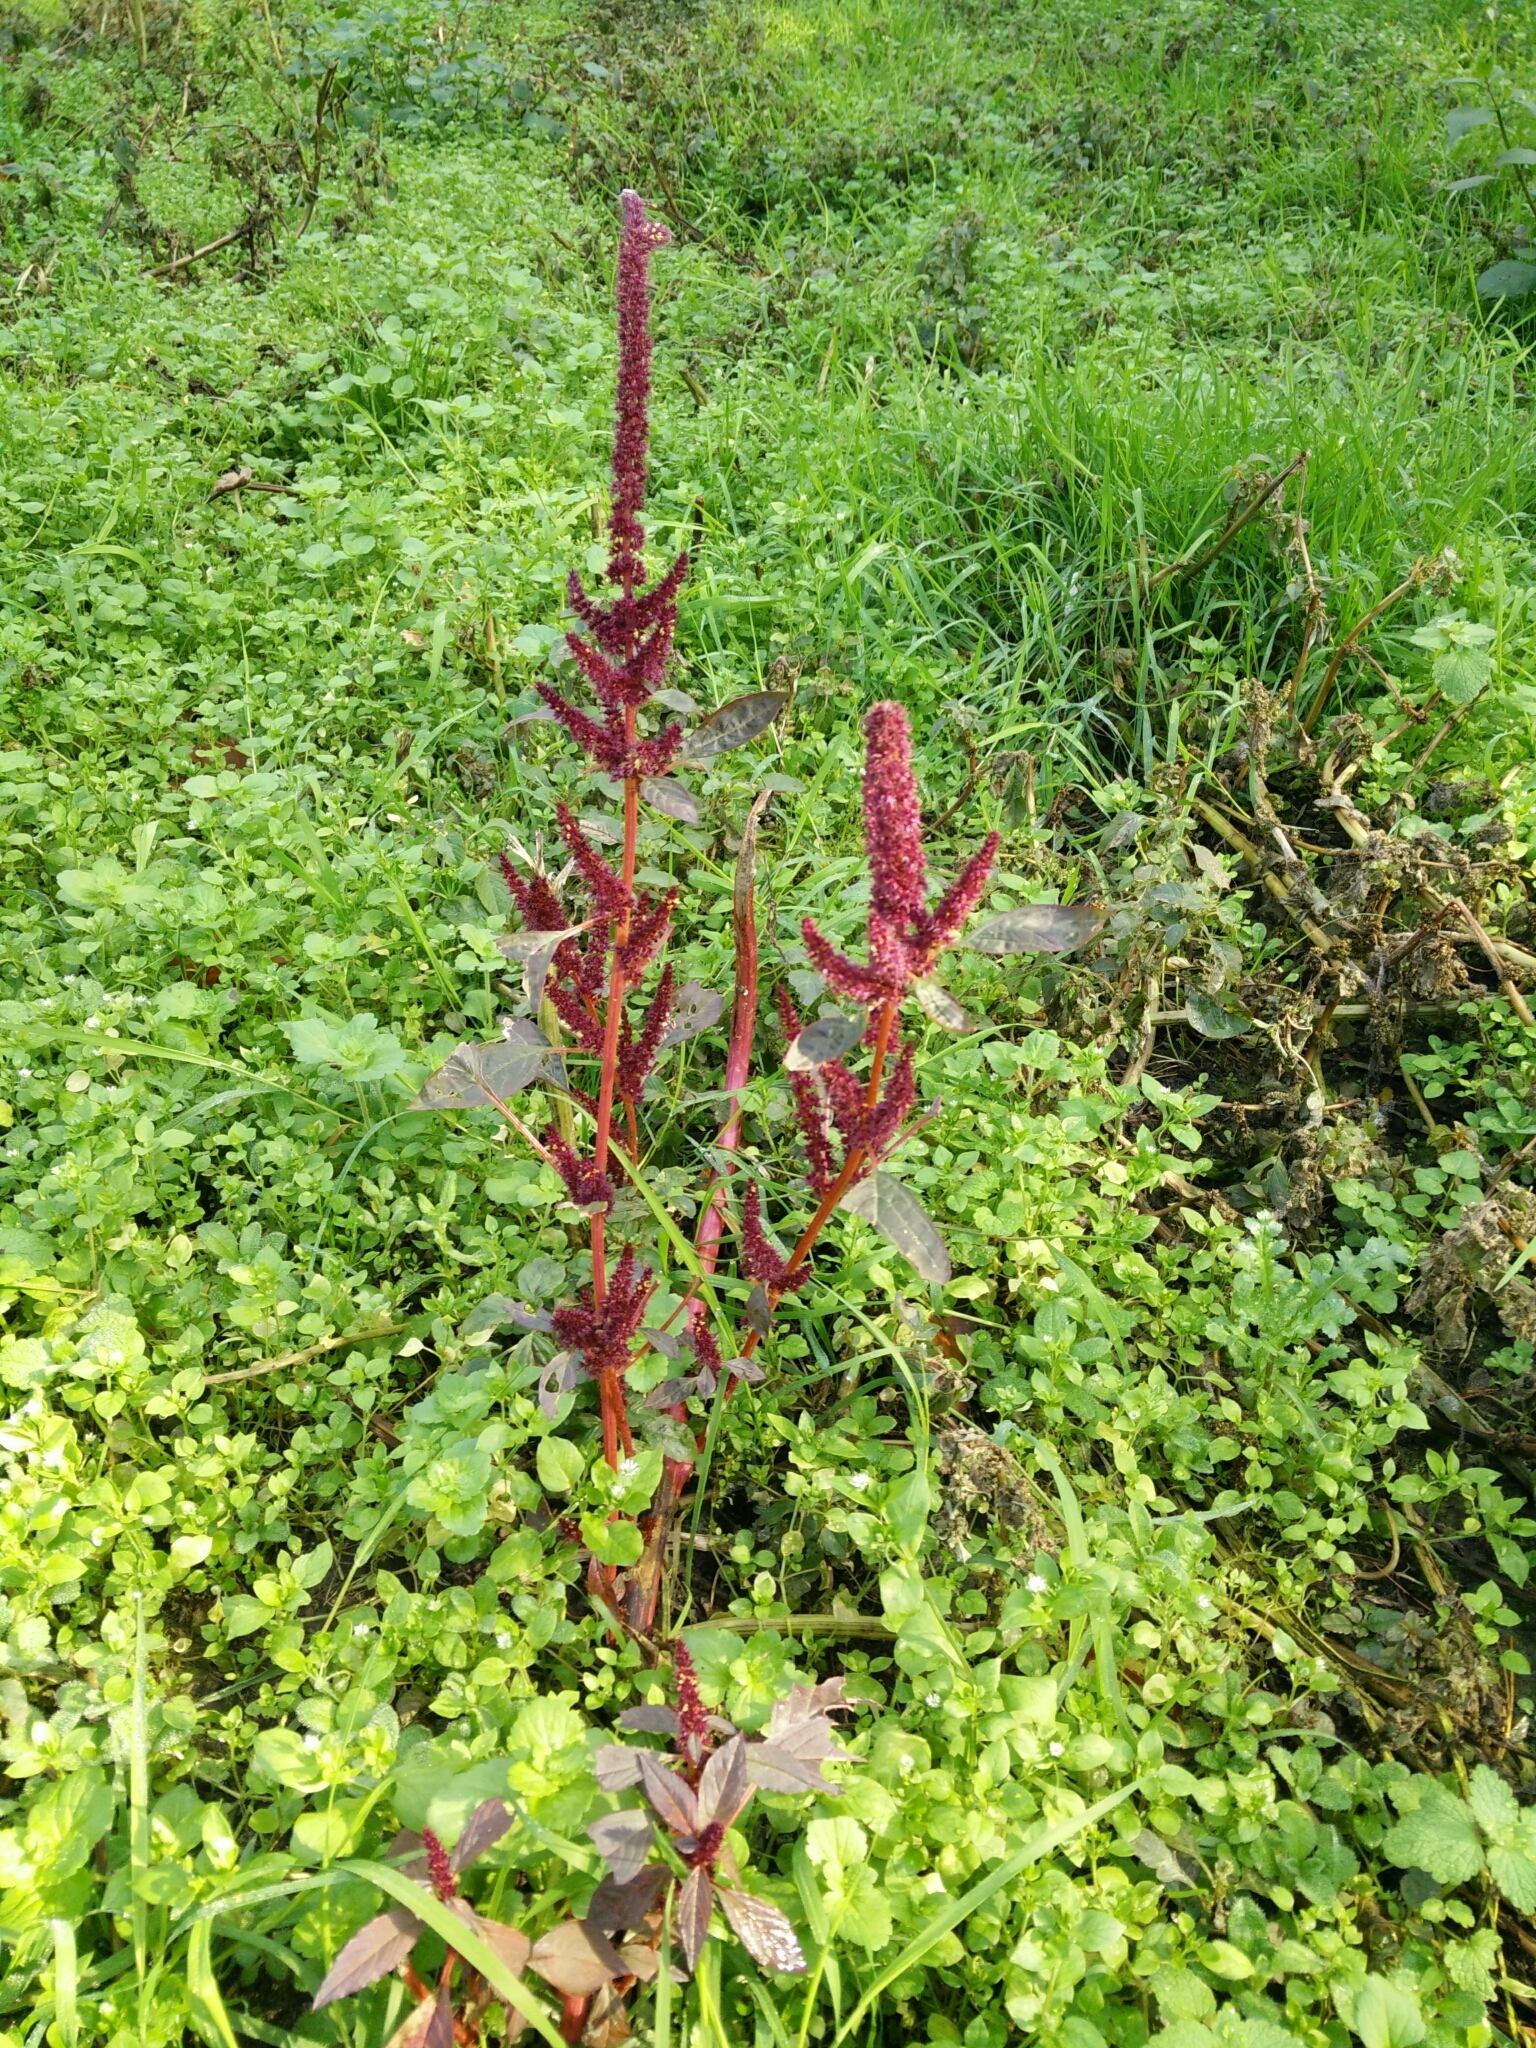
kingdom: Plantae
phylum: Tracheophyta
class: Magnoliopsida
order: Caryophyllales
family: Amaranthaceae
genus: Amaranthus
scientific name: Amaranthus cruentus
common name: Purple amaranth
